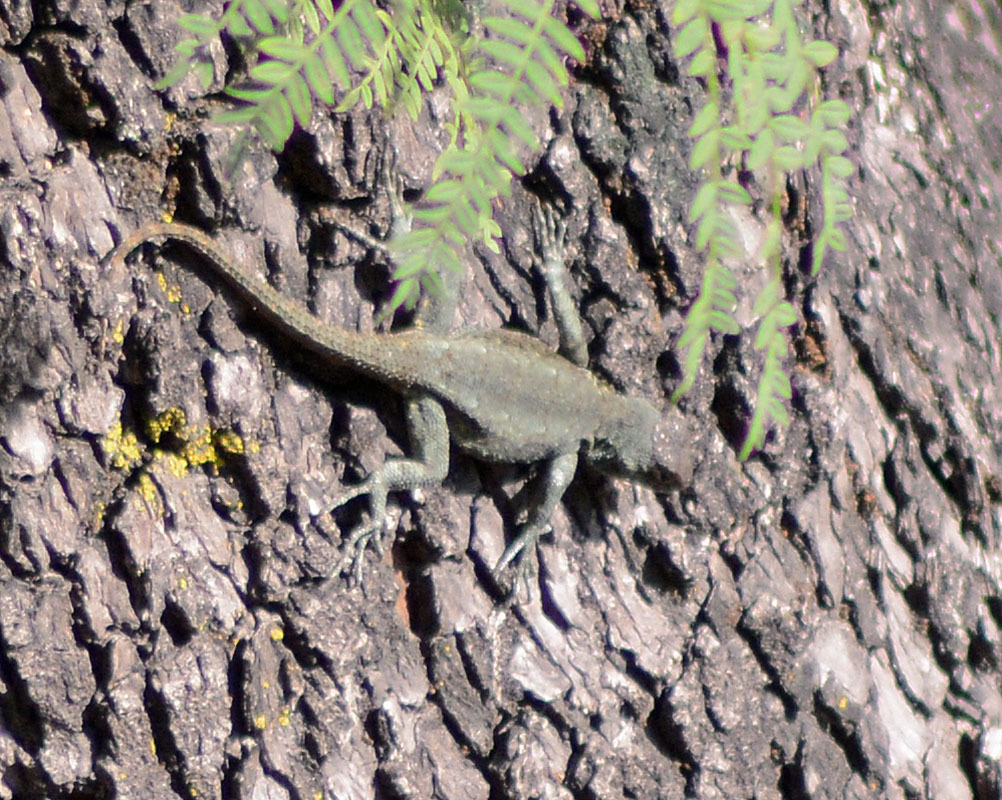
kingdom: Animalia
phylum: Chordata
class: Squamata
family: Phrynosomatidae
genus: Sceloporus
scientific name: Sceloporus grammicus
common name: Mesquite lizard
